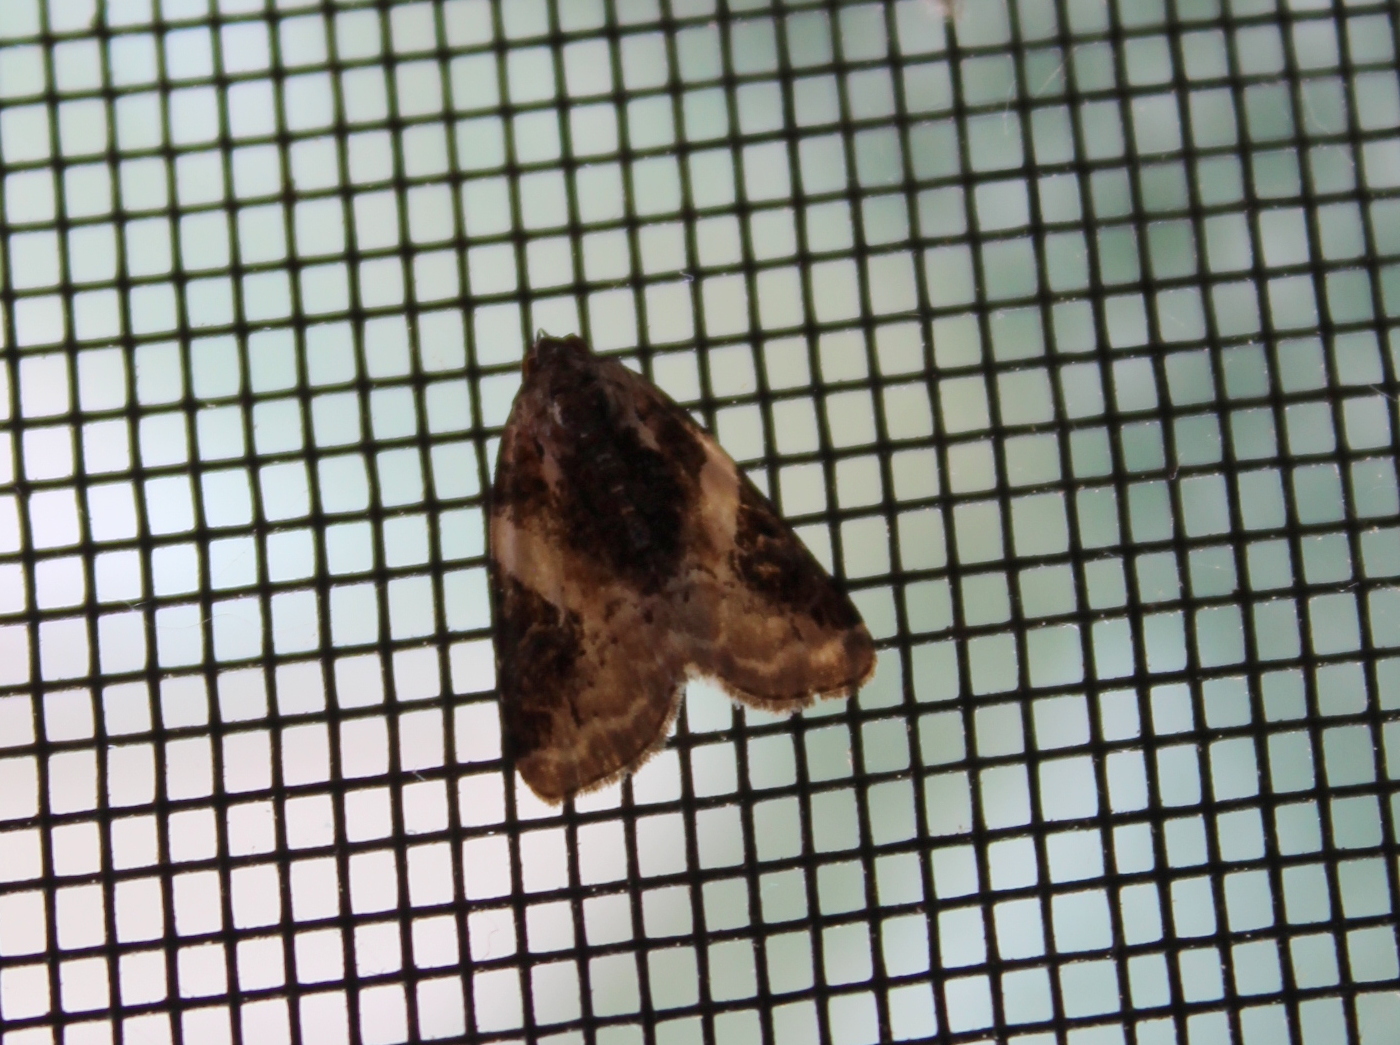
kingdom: Animalia
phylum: Arthropoda
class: Insecta
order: Lepidoptera
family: Noctuidae
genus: Pseudeustrotia
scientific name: Pseudeustrotia carneola
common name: Pink-barred lithacodia moth
